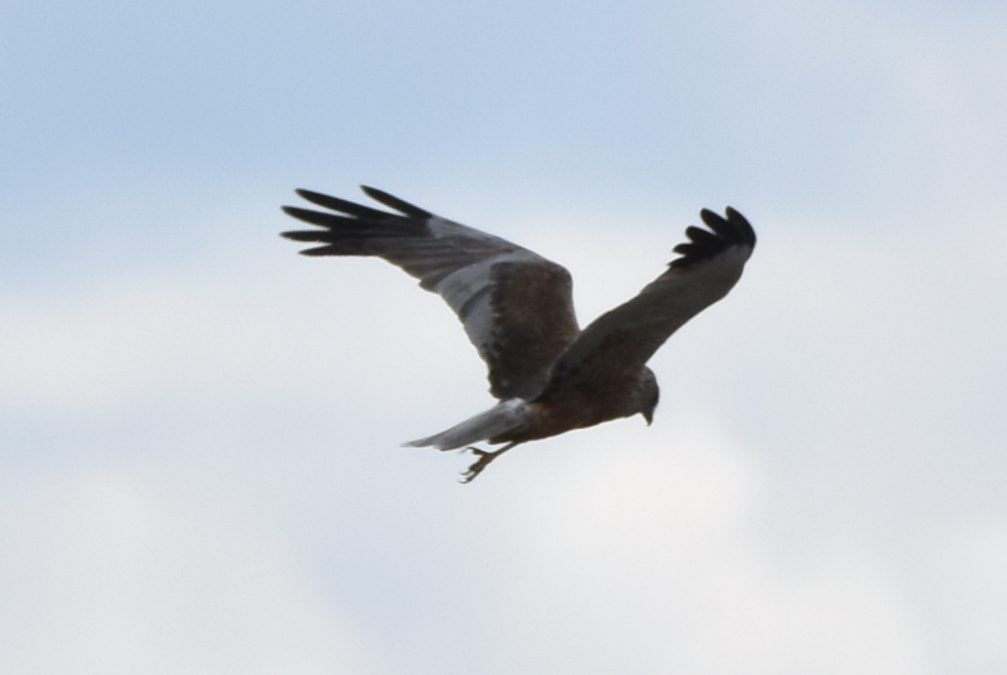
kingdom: Animalia
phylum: Chordata
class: Aves
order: Accipitriformes
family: Accipitridae
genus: Circus
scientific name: Circus aeruginosus
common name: Western marsh harrier
